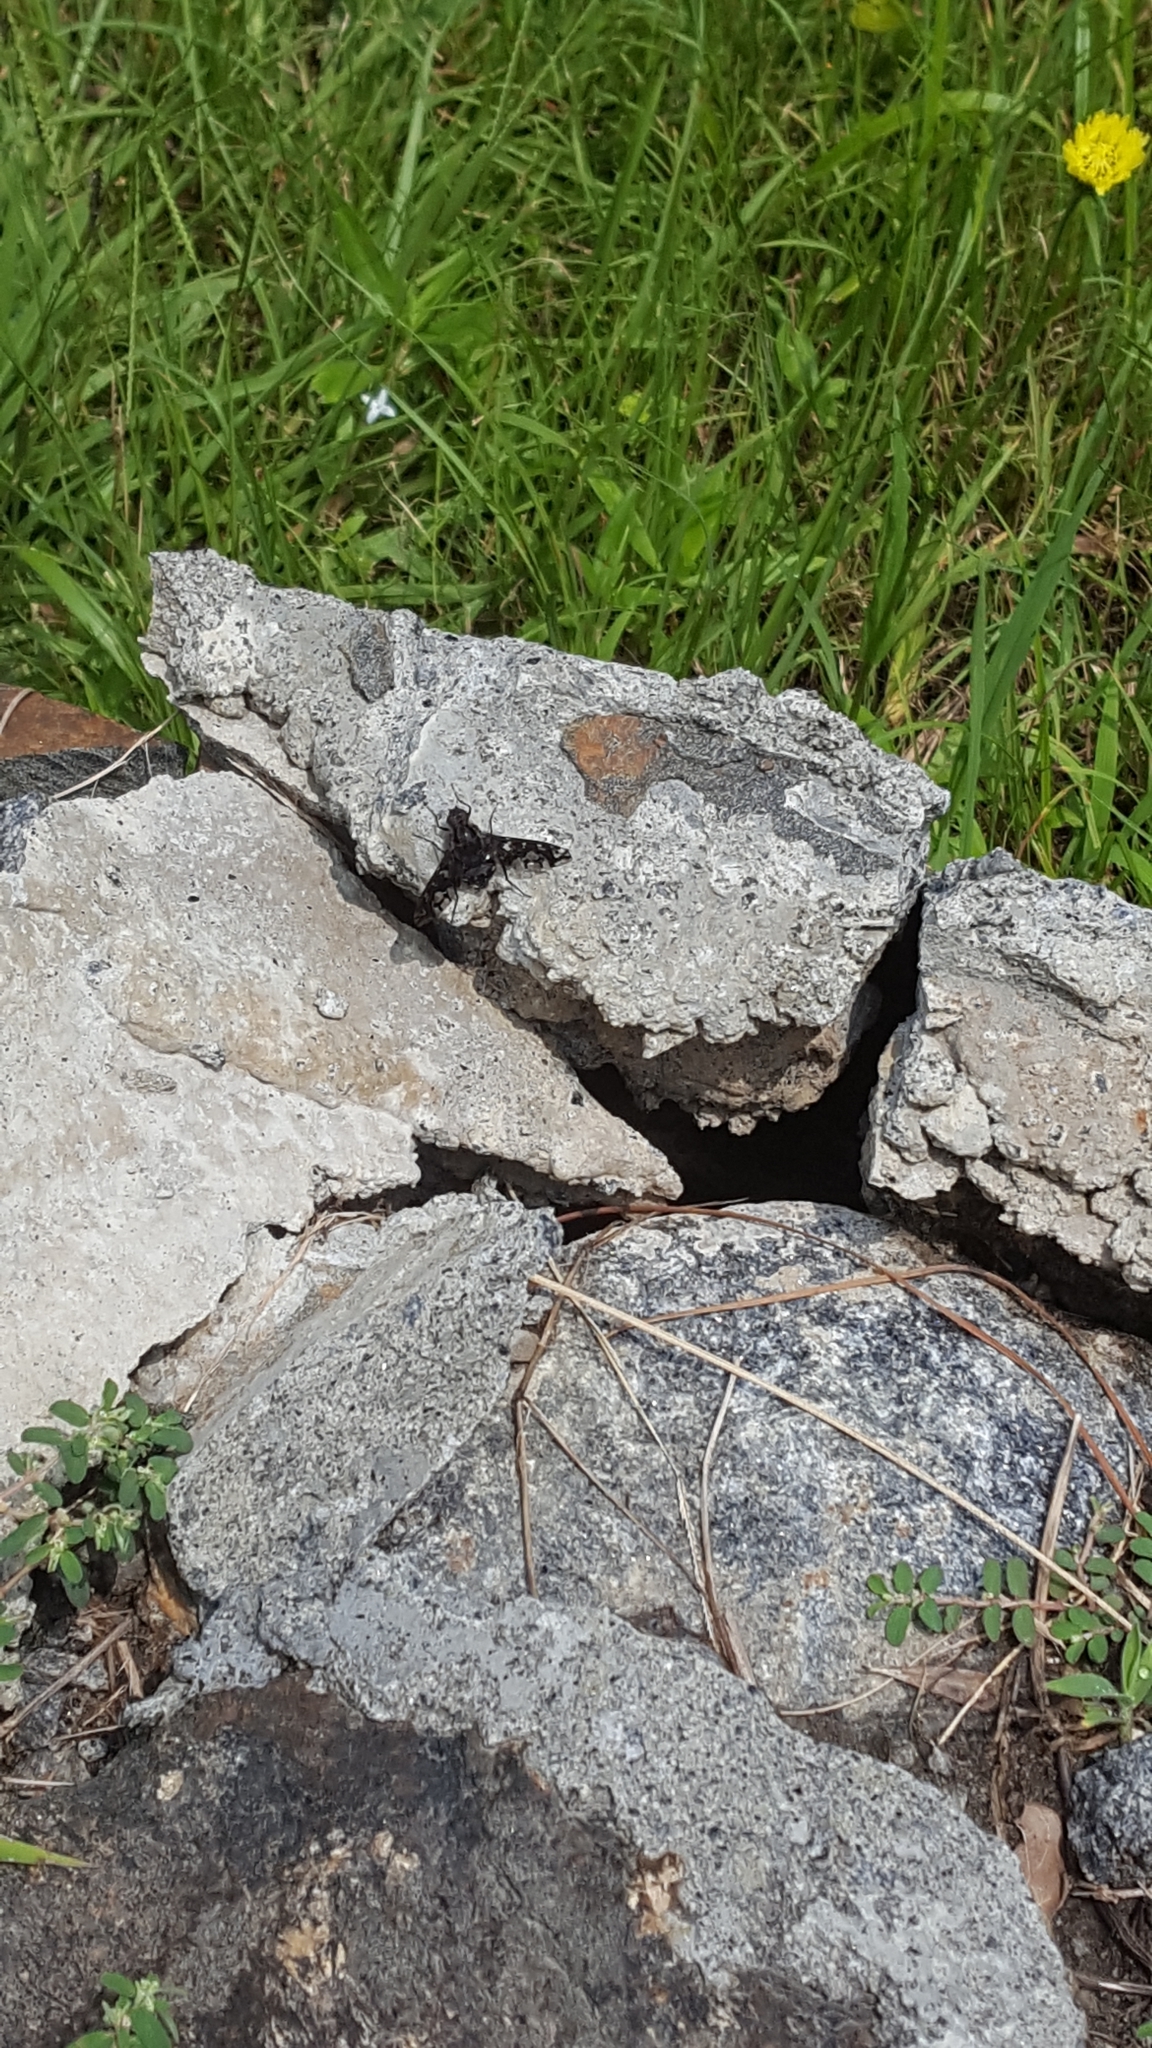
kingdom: Animalia
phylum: Arthropoda
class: Insecta
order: Diptera
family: Bombyliidae
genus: Xenox
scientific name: Xenox tigrinus
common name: Tiger bee fly
